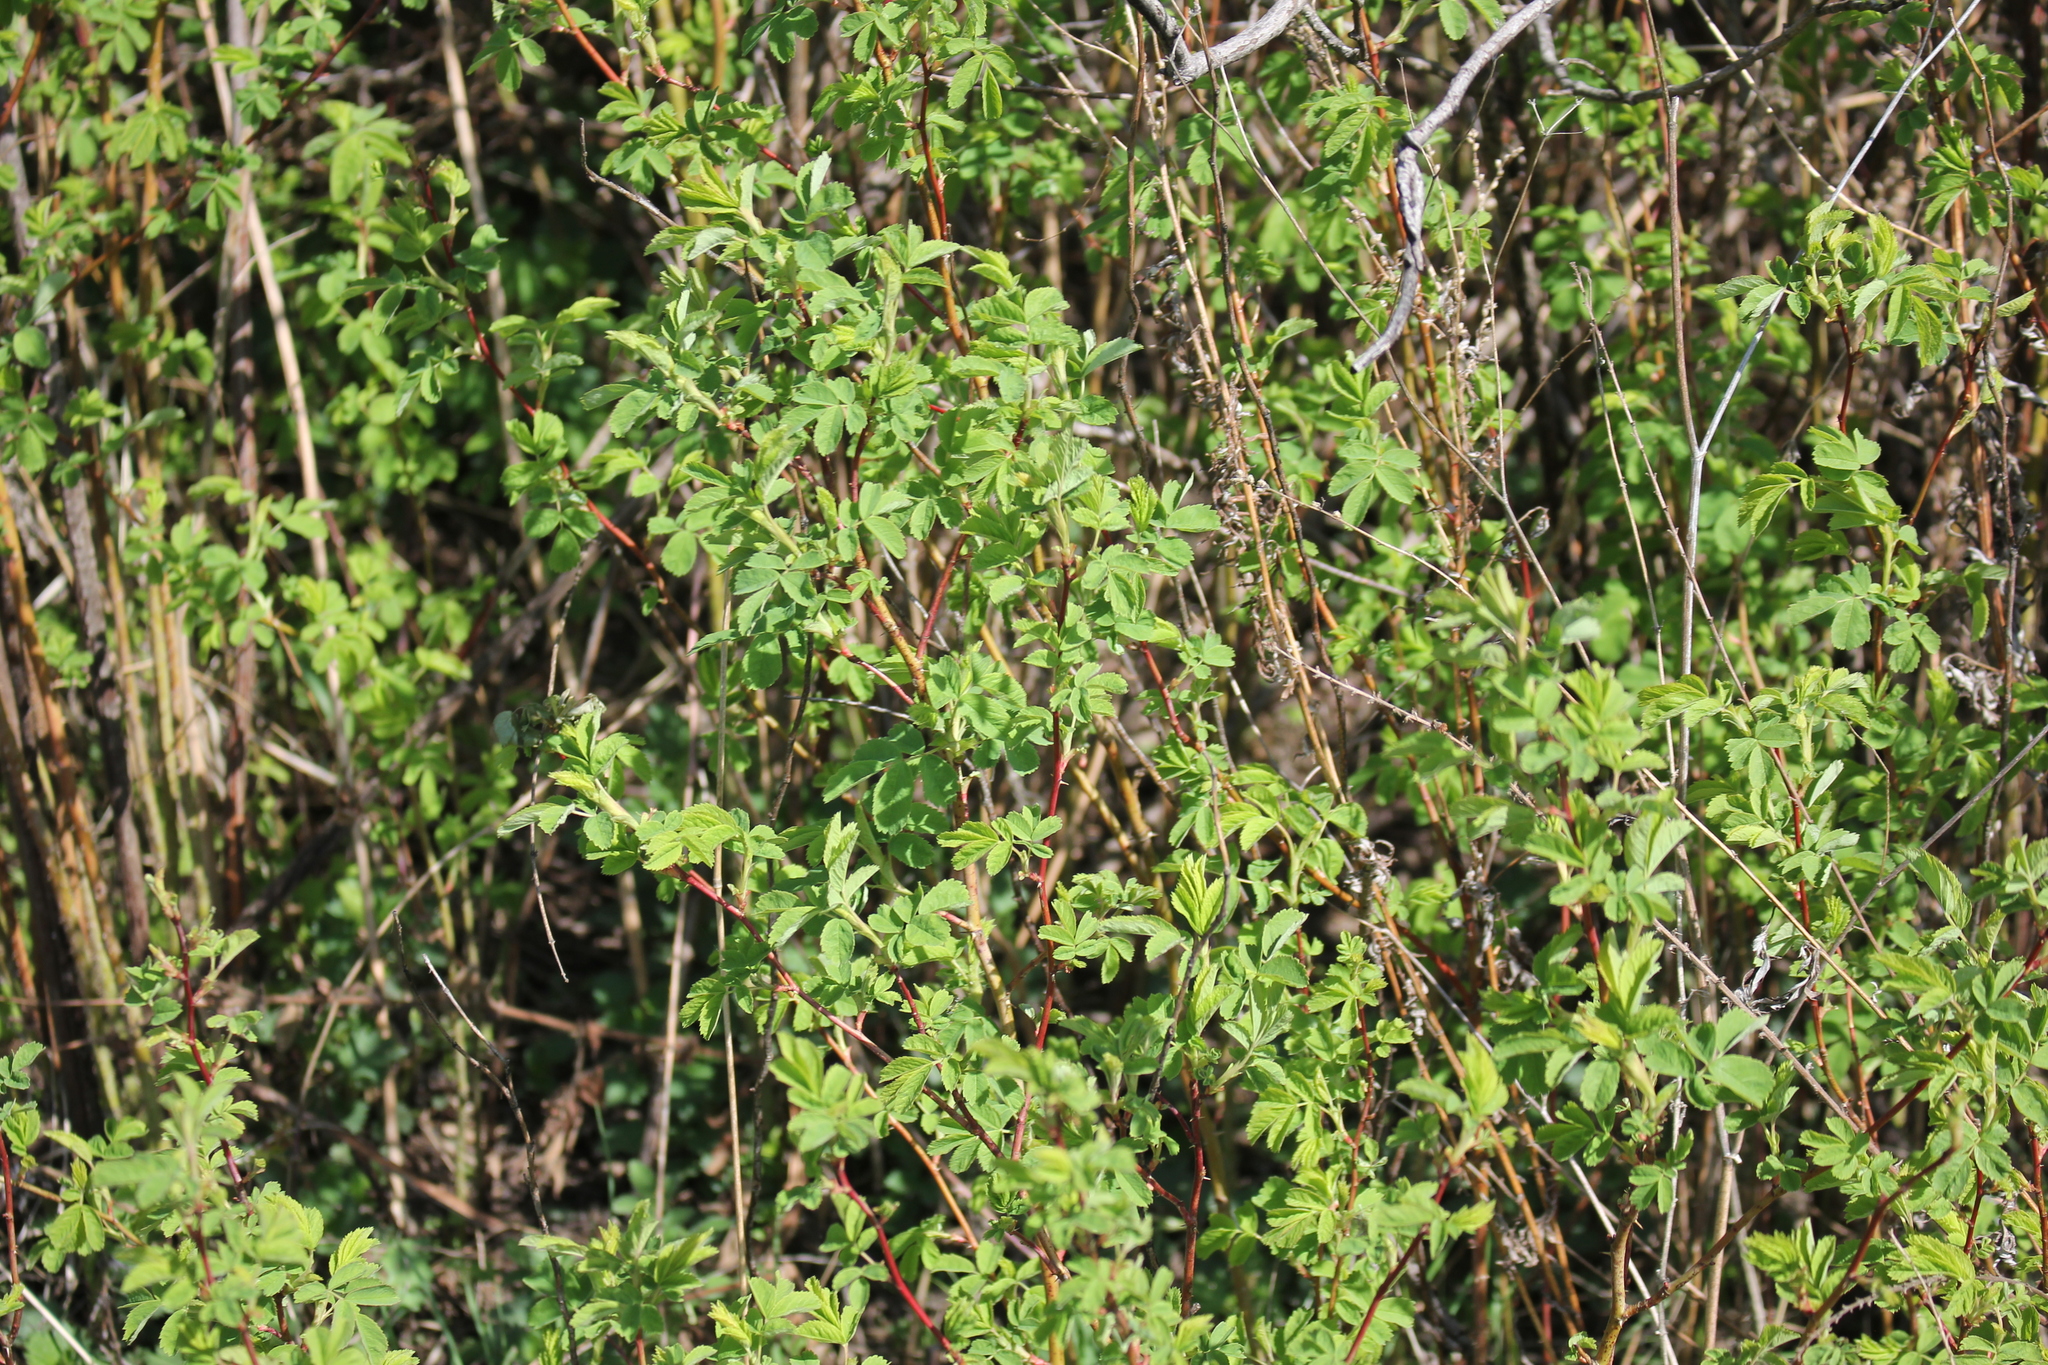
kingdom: Plantae
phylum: Tracheophyta
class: Magnoliopsida
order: Rosales
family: Rosaceae
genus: Rosa
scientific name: Rosa majalis
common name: Cinnamon rose
